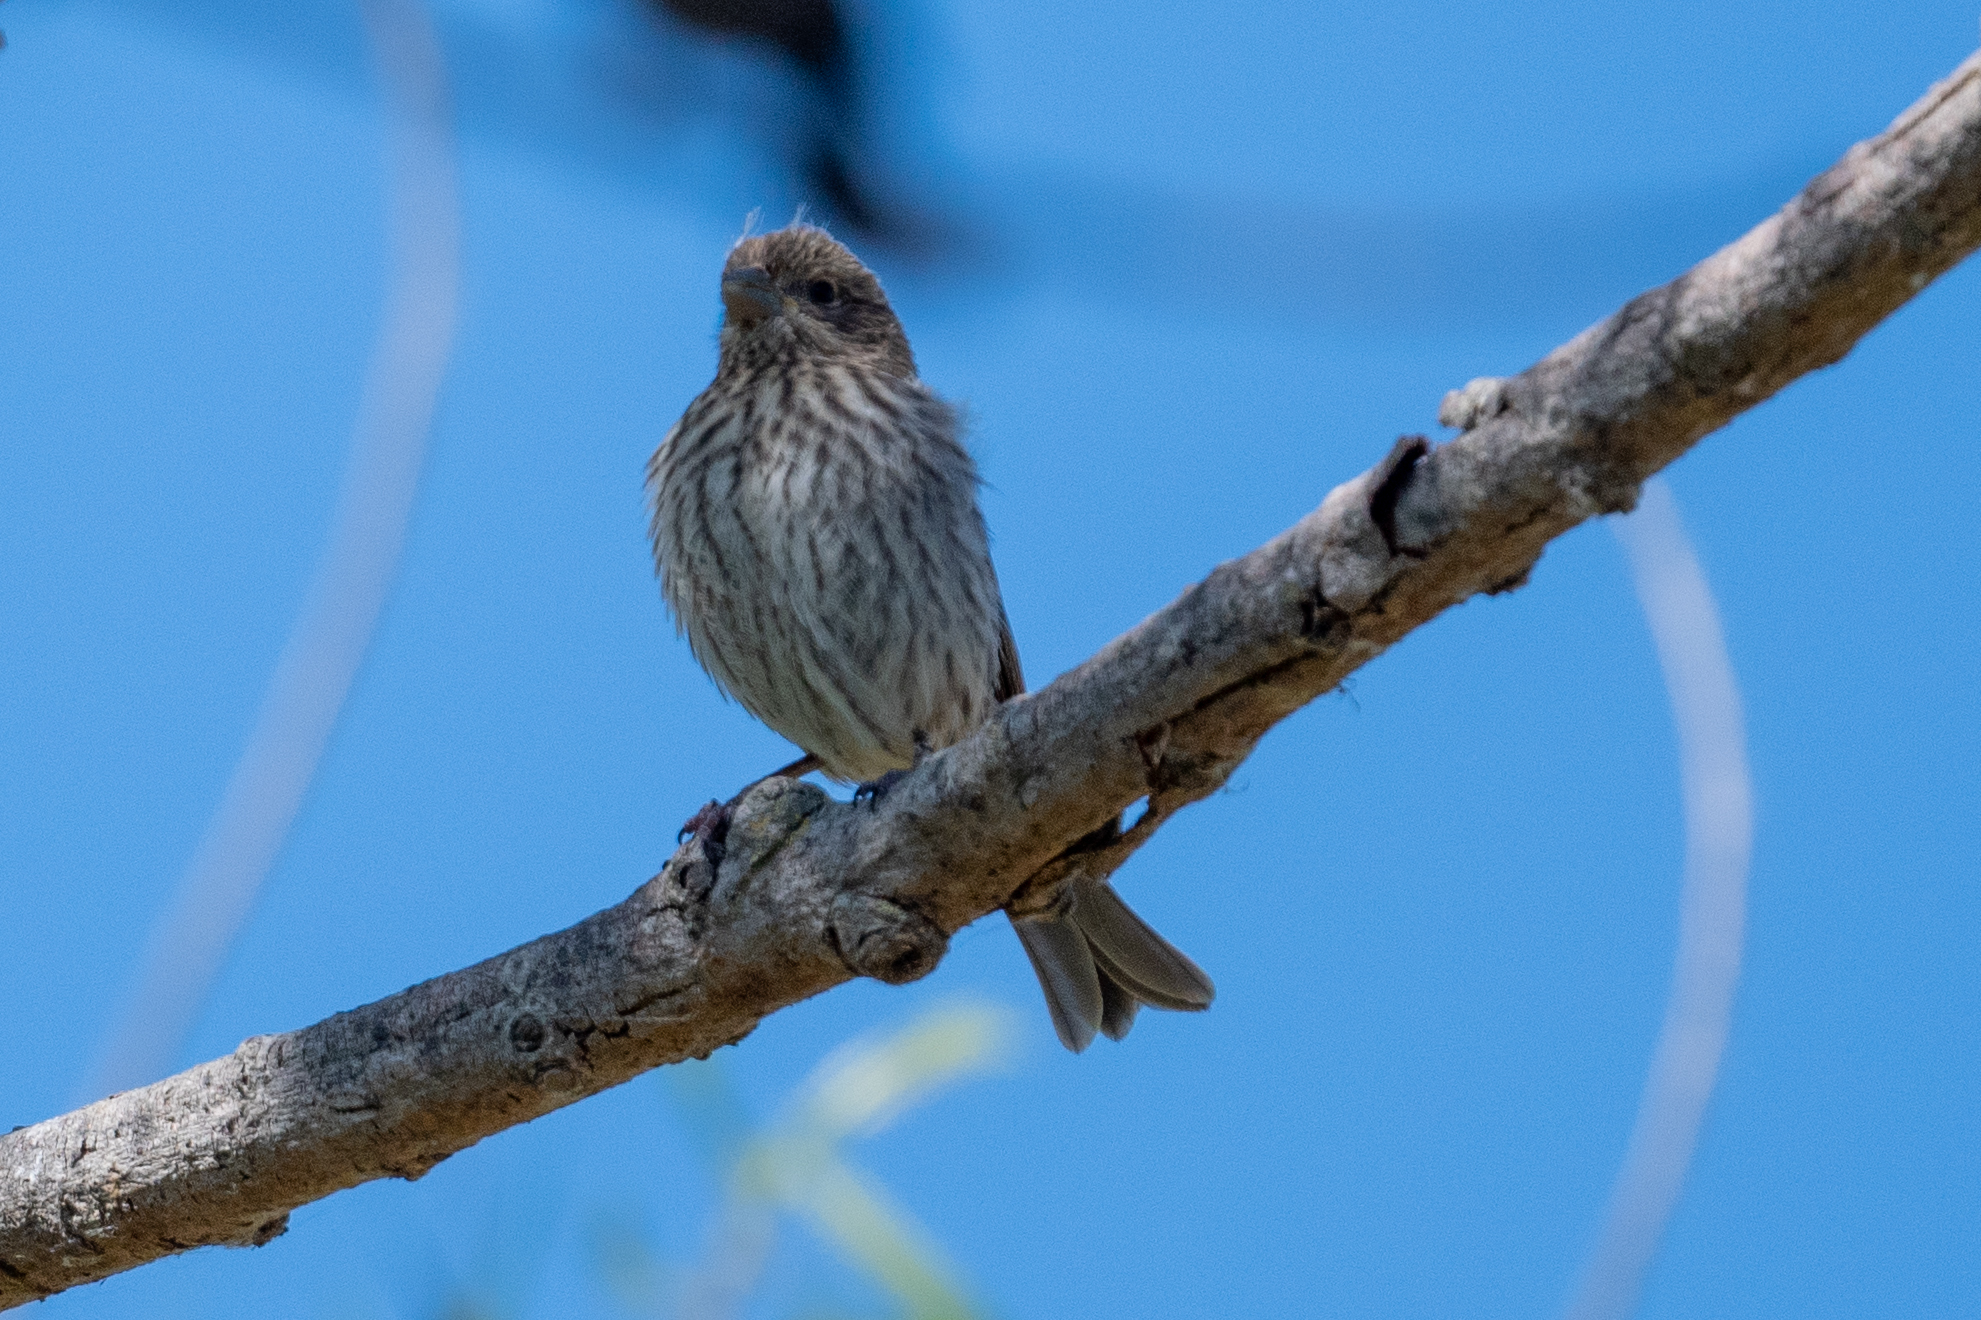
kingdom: Animalia
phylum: Chordata
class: Aves
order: Passeriformes
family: Fringillidae
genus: Haemorhous
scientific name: Haemorhous mexicanus
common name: House finch
